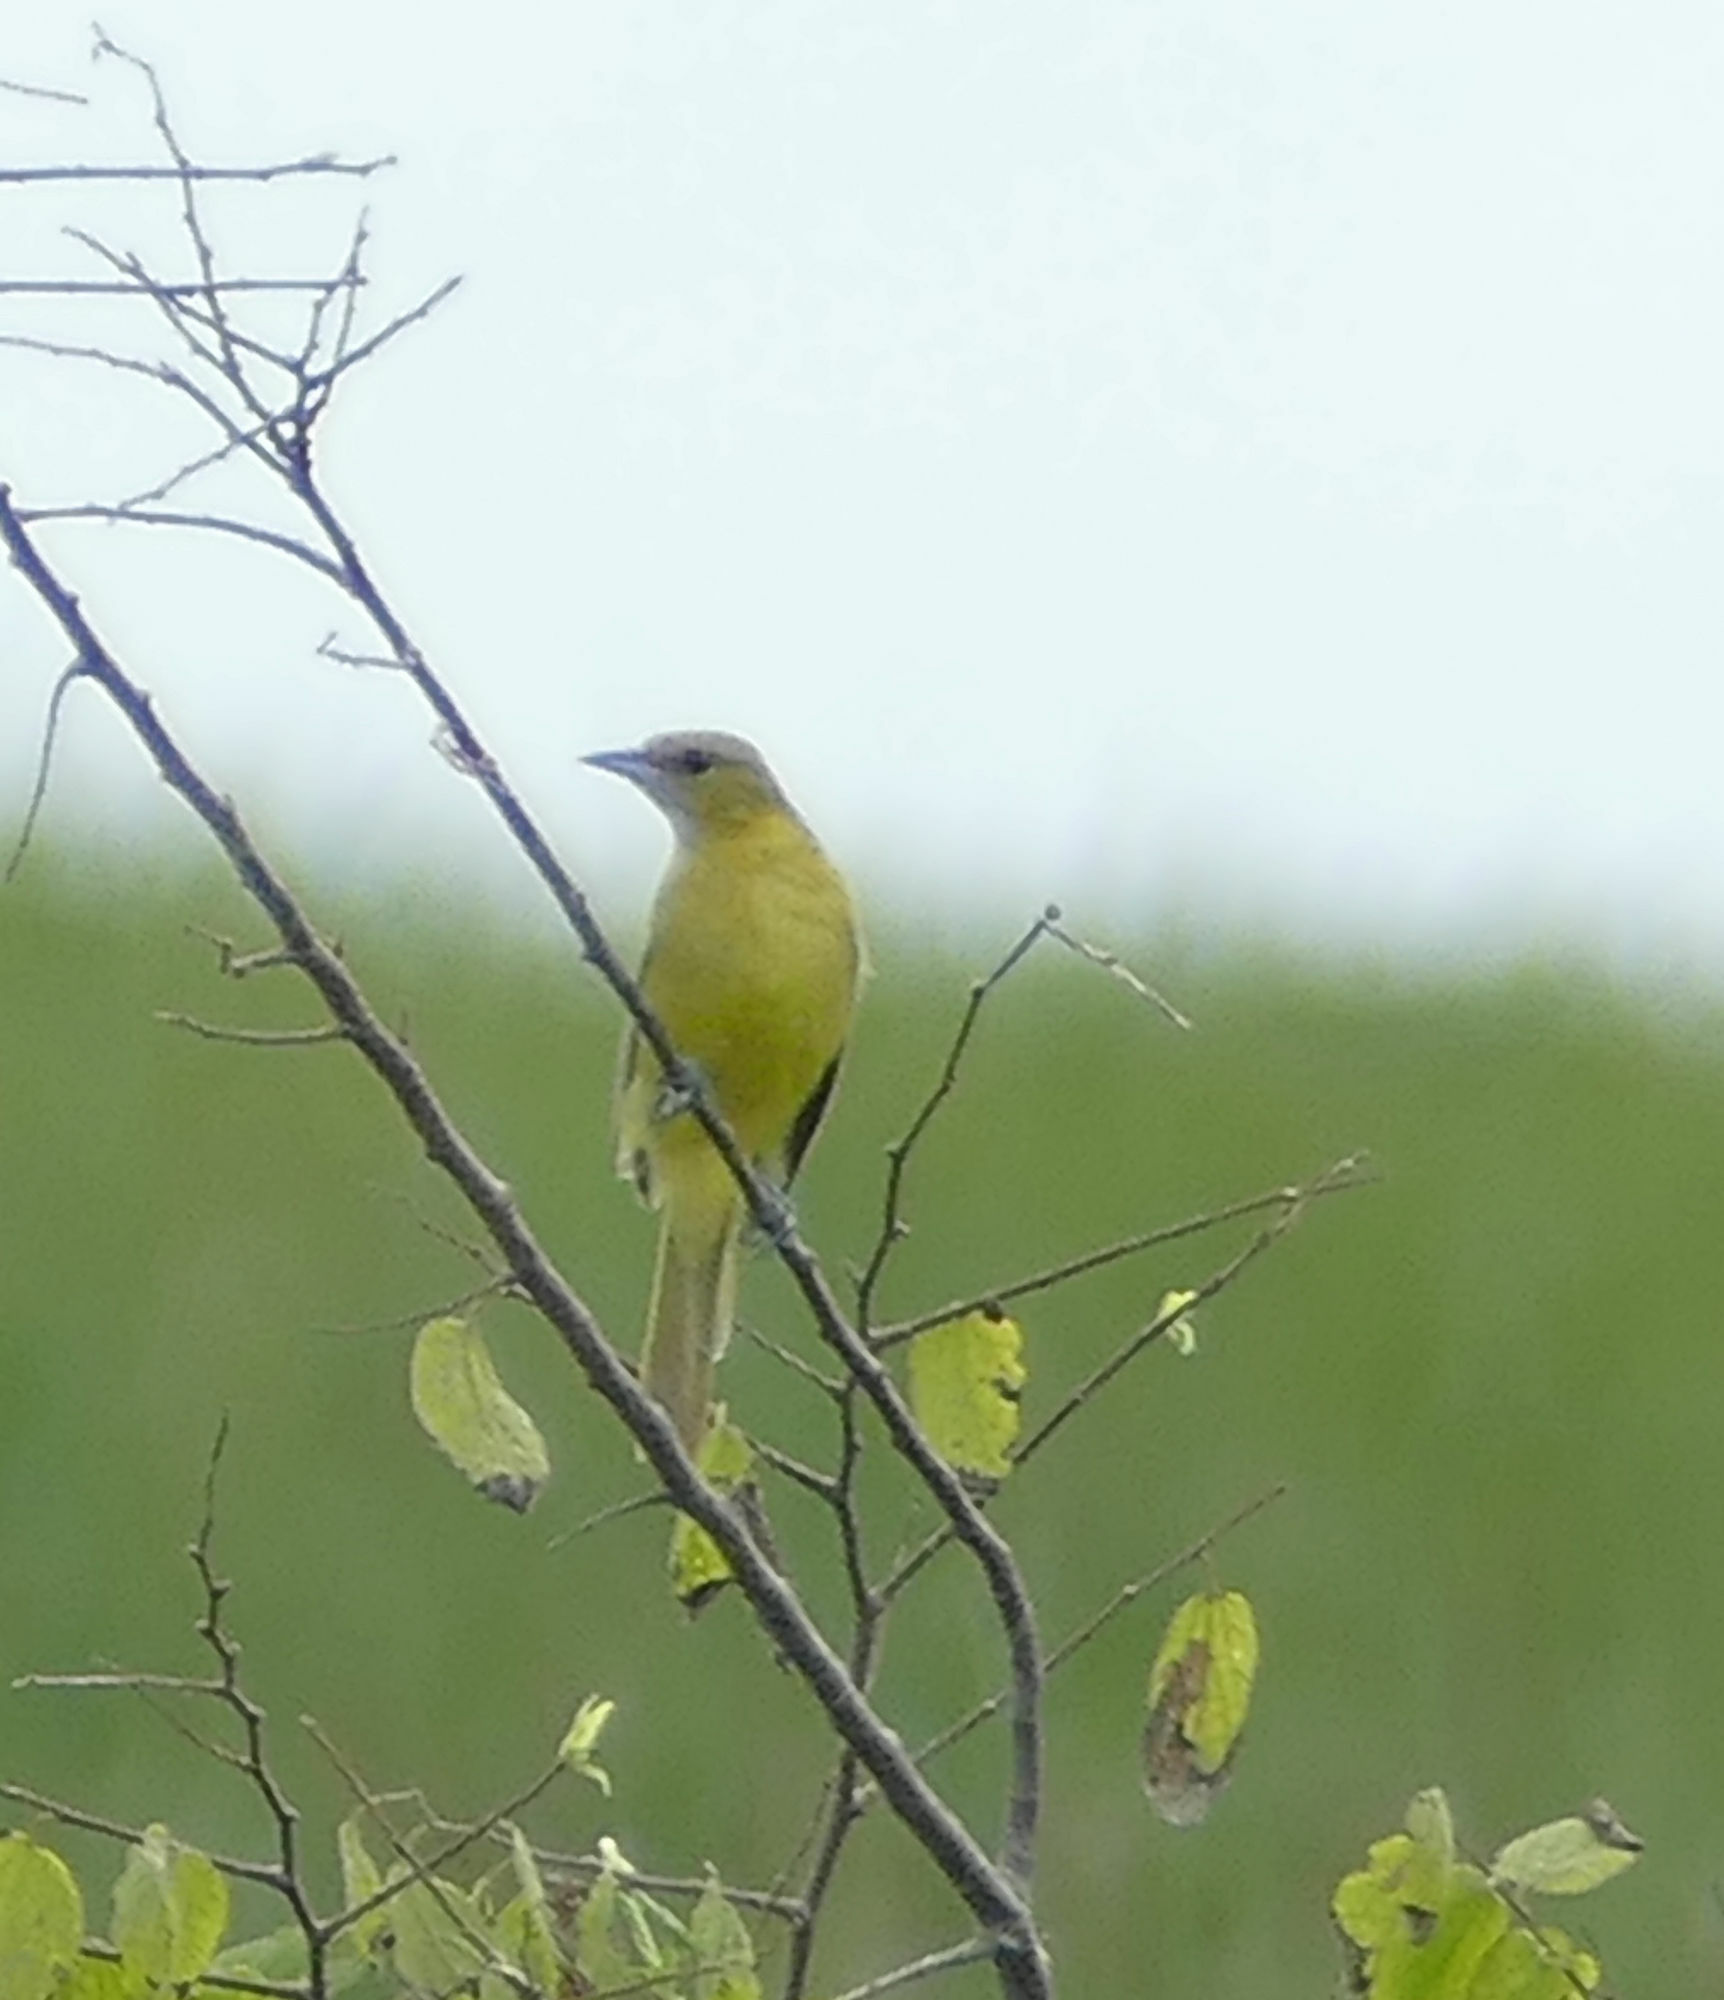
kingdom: Animalia
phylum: Chordata
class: Aves
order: Passeriformes
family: Icteridae
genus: Icterus
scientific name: Icterus spurius
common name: Orchard oriole
